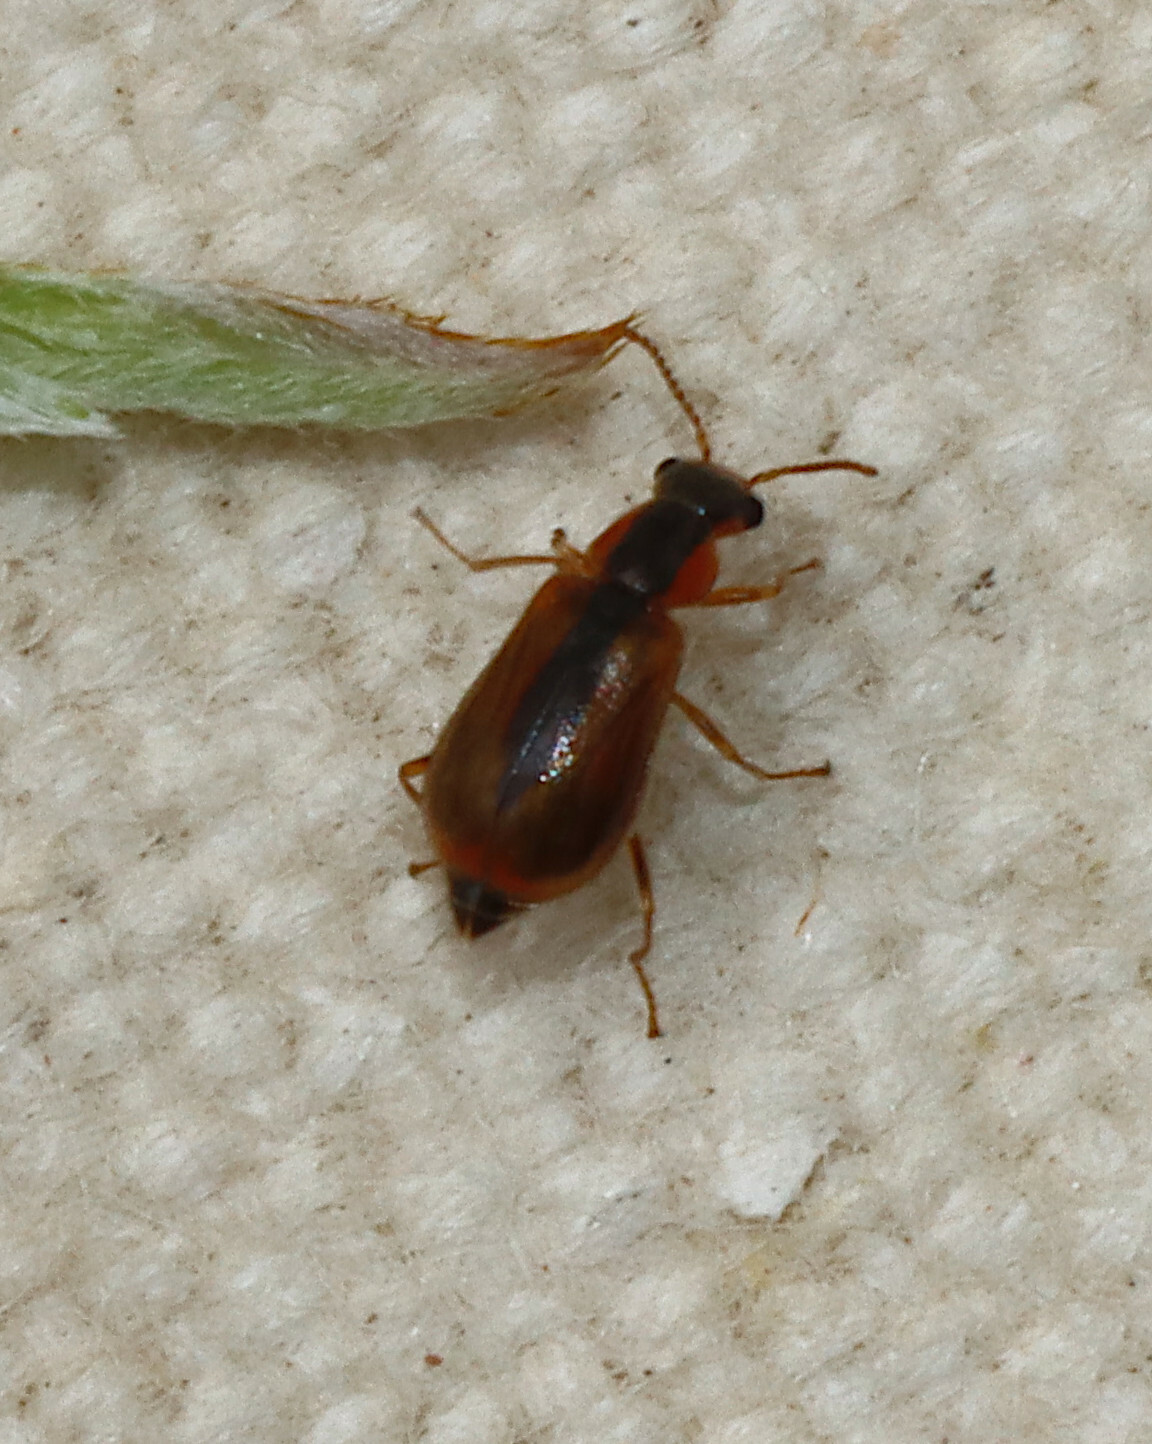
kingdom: Animalia
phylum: Arthropoda
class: Insecta
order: Coleoptera
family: Malachiidae
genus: Attalus
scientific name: Attalus
